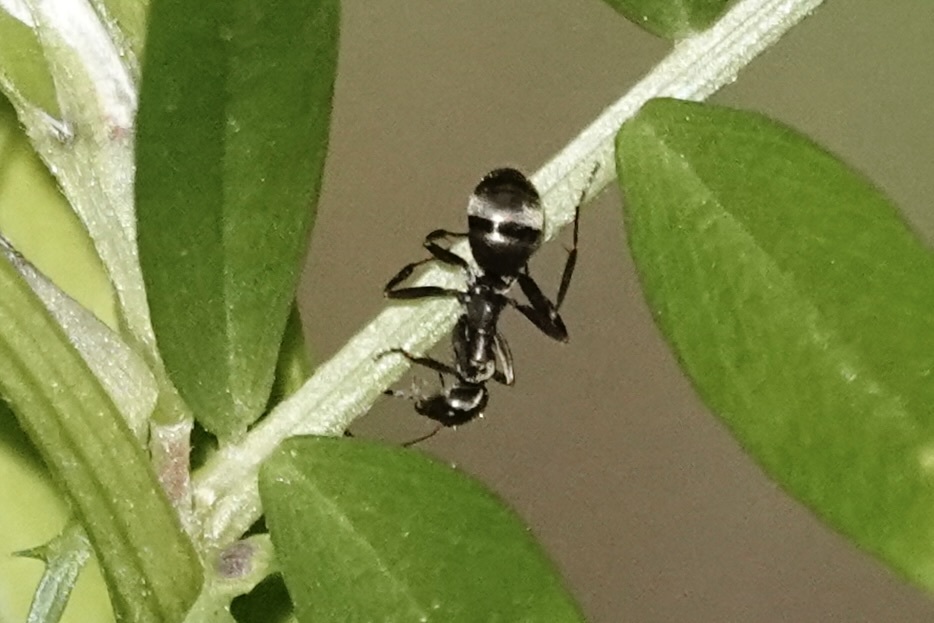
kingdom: Animalia
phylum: Arthropoda
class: Insecta
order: Hymenoptera
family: Formicidae
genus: Formica
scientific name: Formica subsericea
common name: Silky field ant
